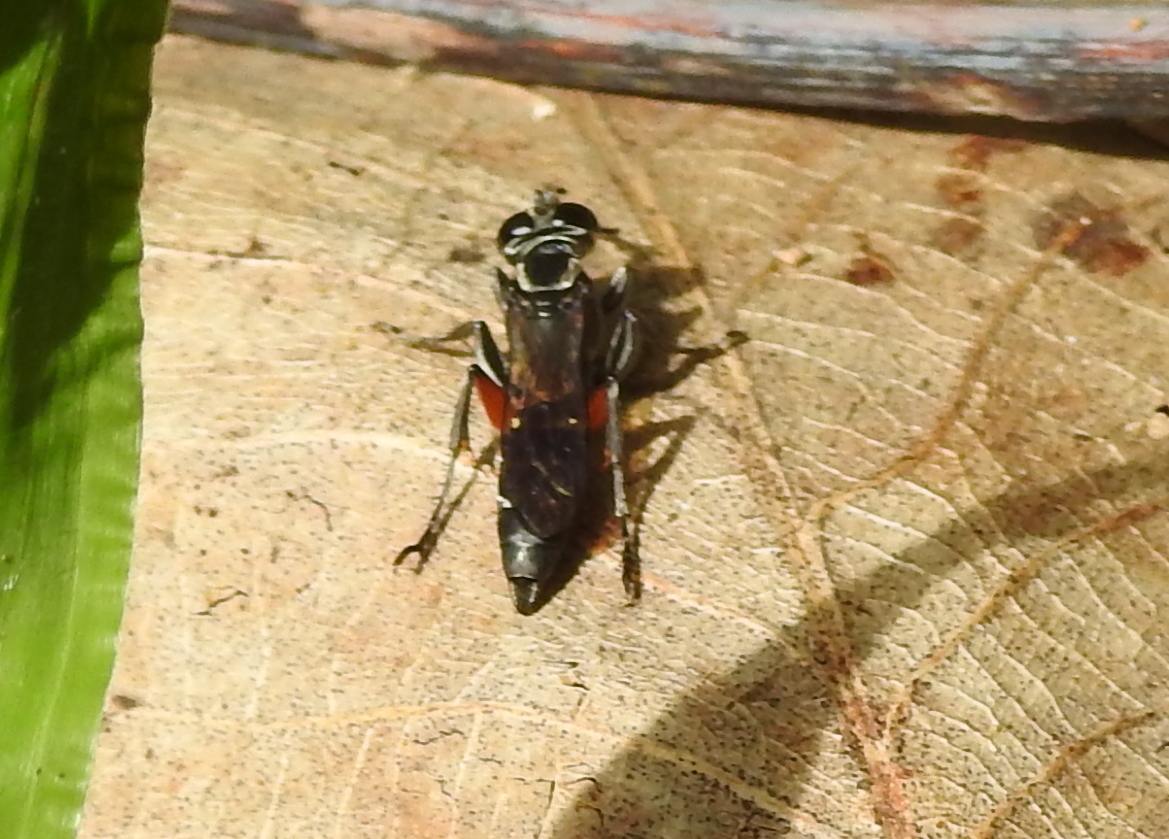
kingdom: Animalia
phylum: Arthropoda
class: Insecta
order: Hymenoptera
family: Crabronidae
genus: Liris
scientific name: Liris subtessellatus
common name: Crabronid wasp
